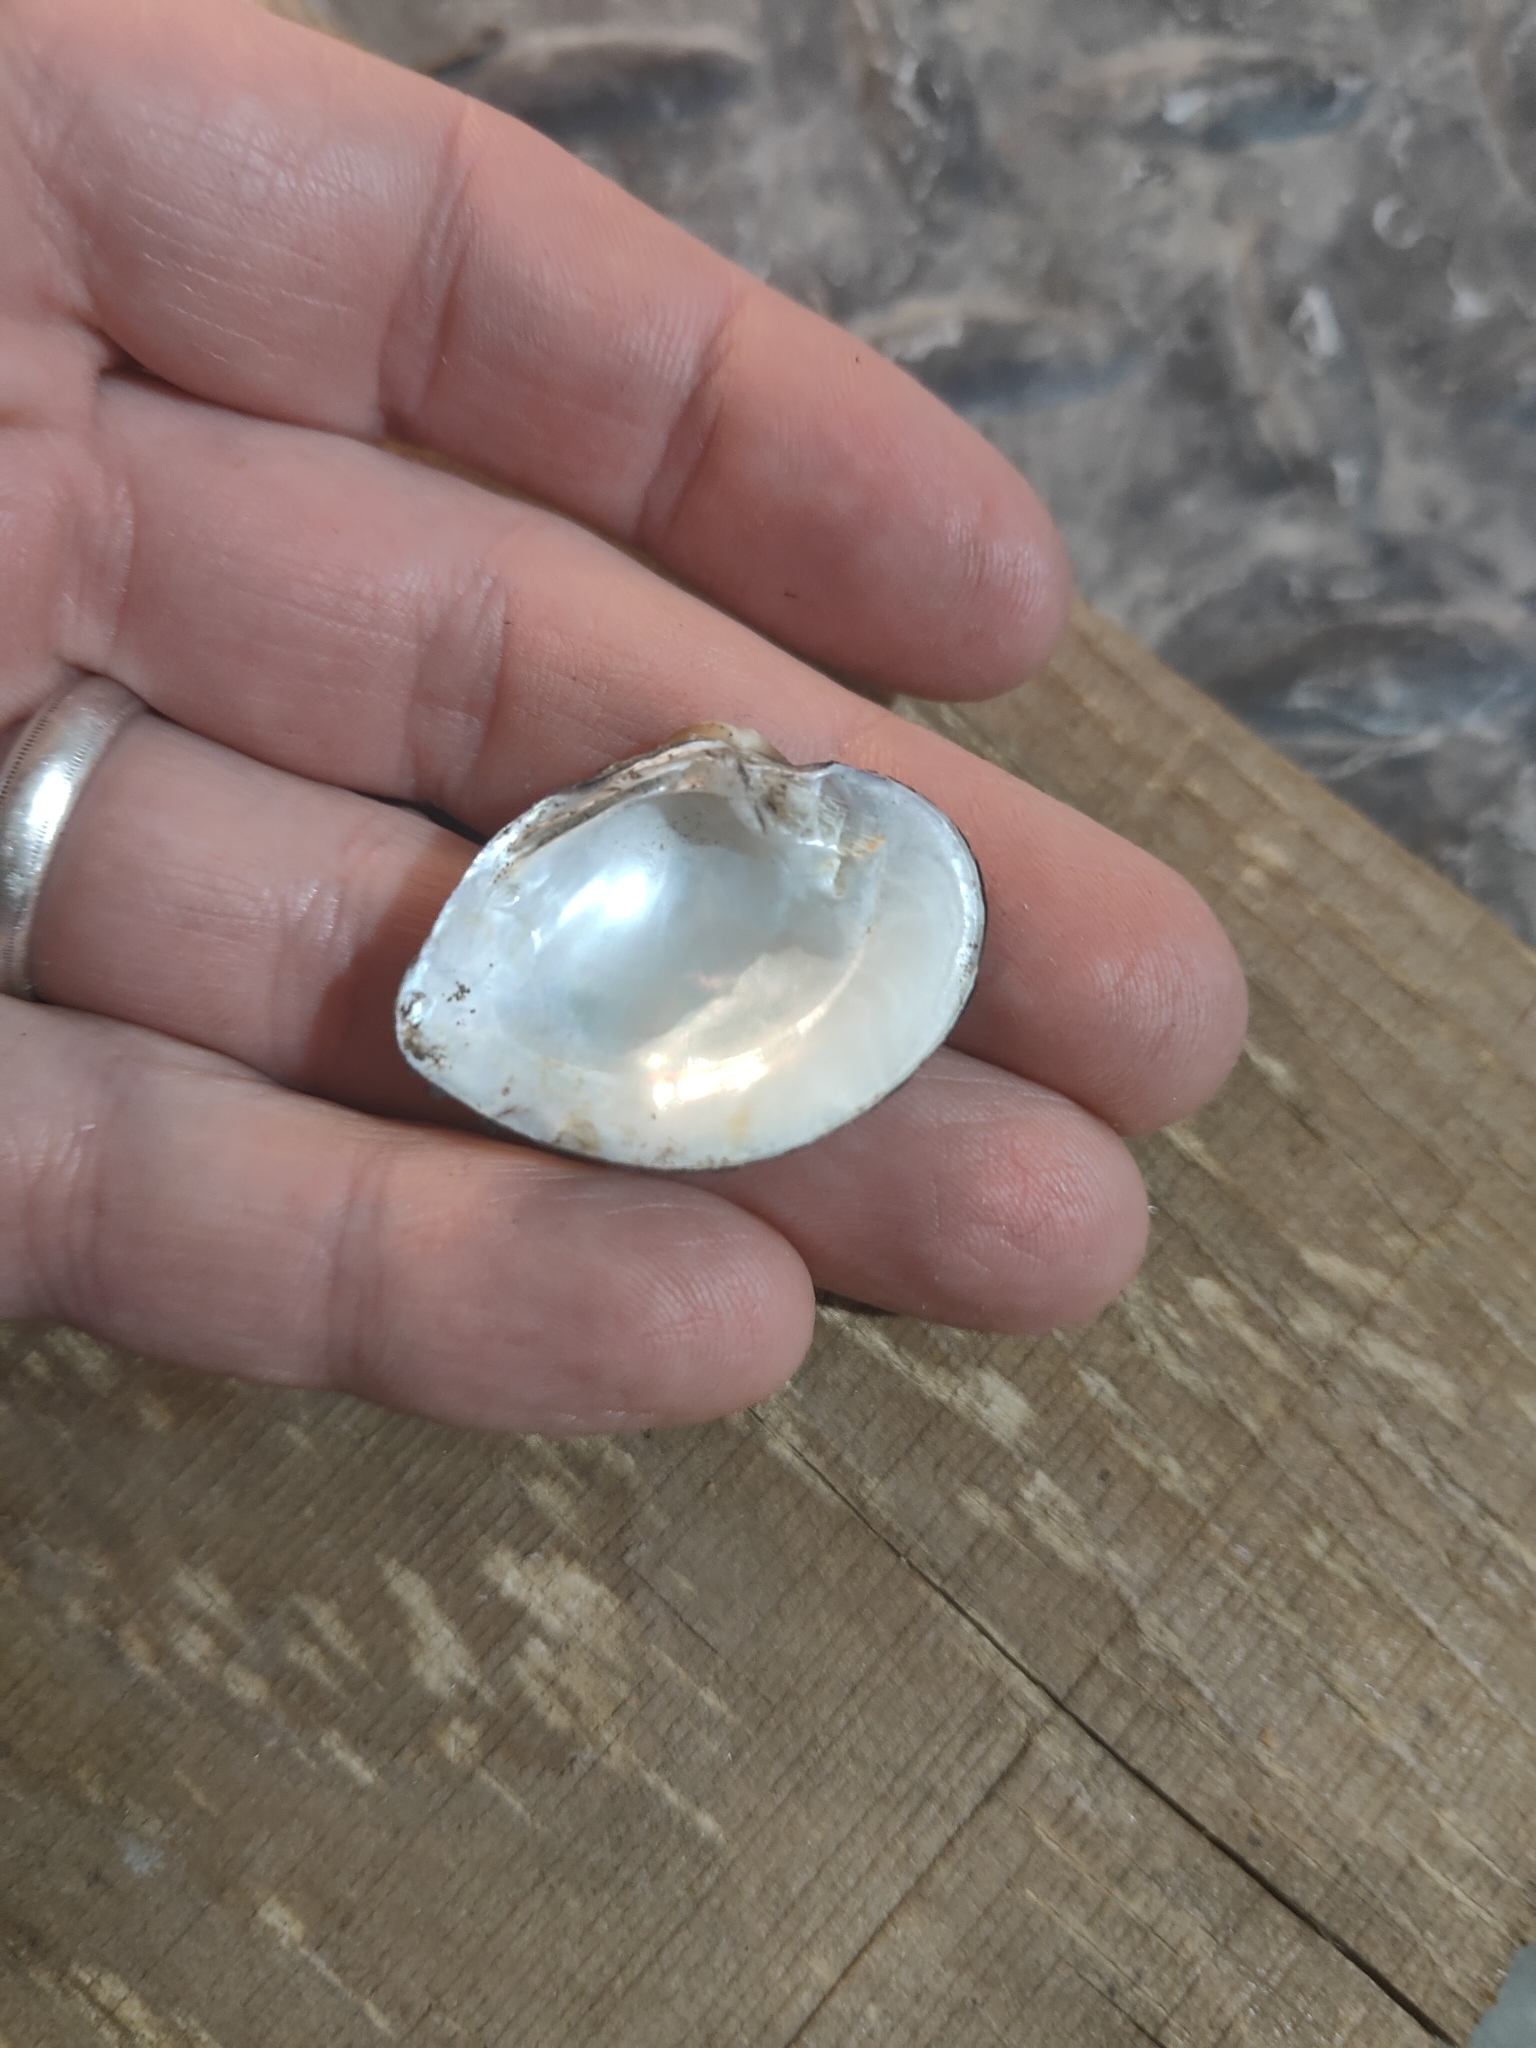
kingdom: Animalia
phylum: Mollusca
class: Bivalvia
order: Unionida
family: Unionidae
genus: Truncilla
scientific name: Truncilla truncata
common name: Deertoe
